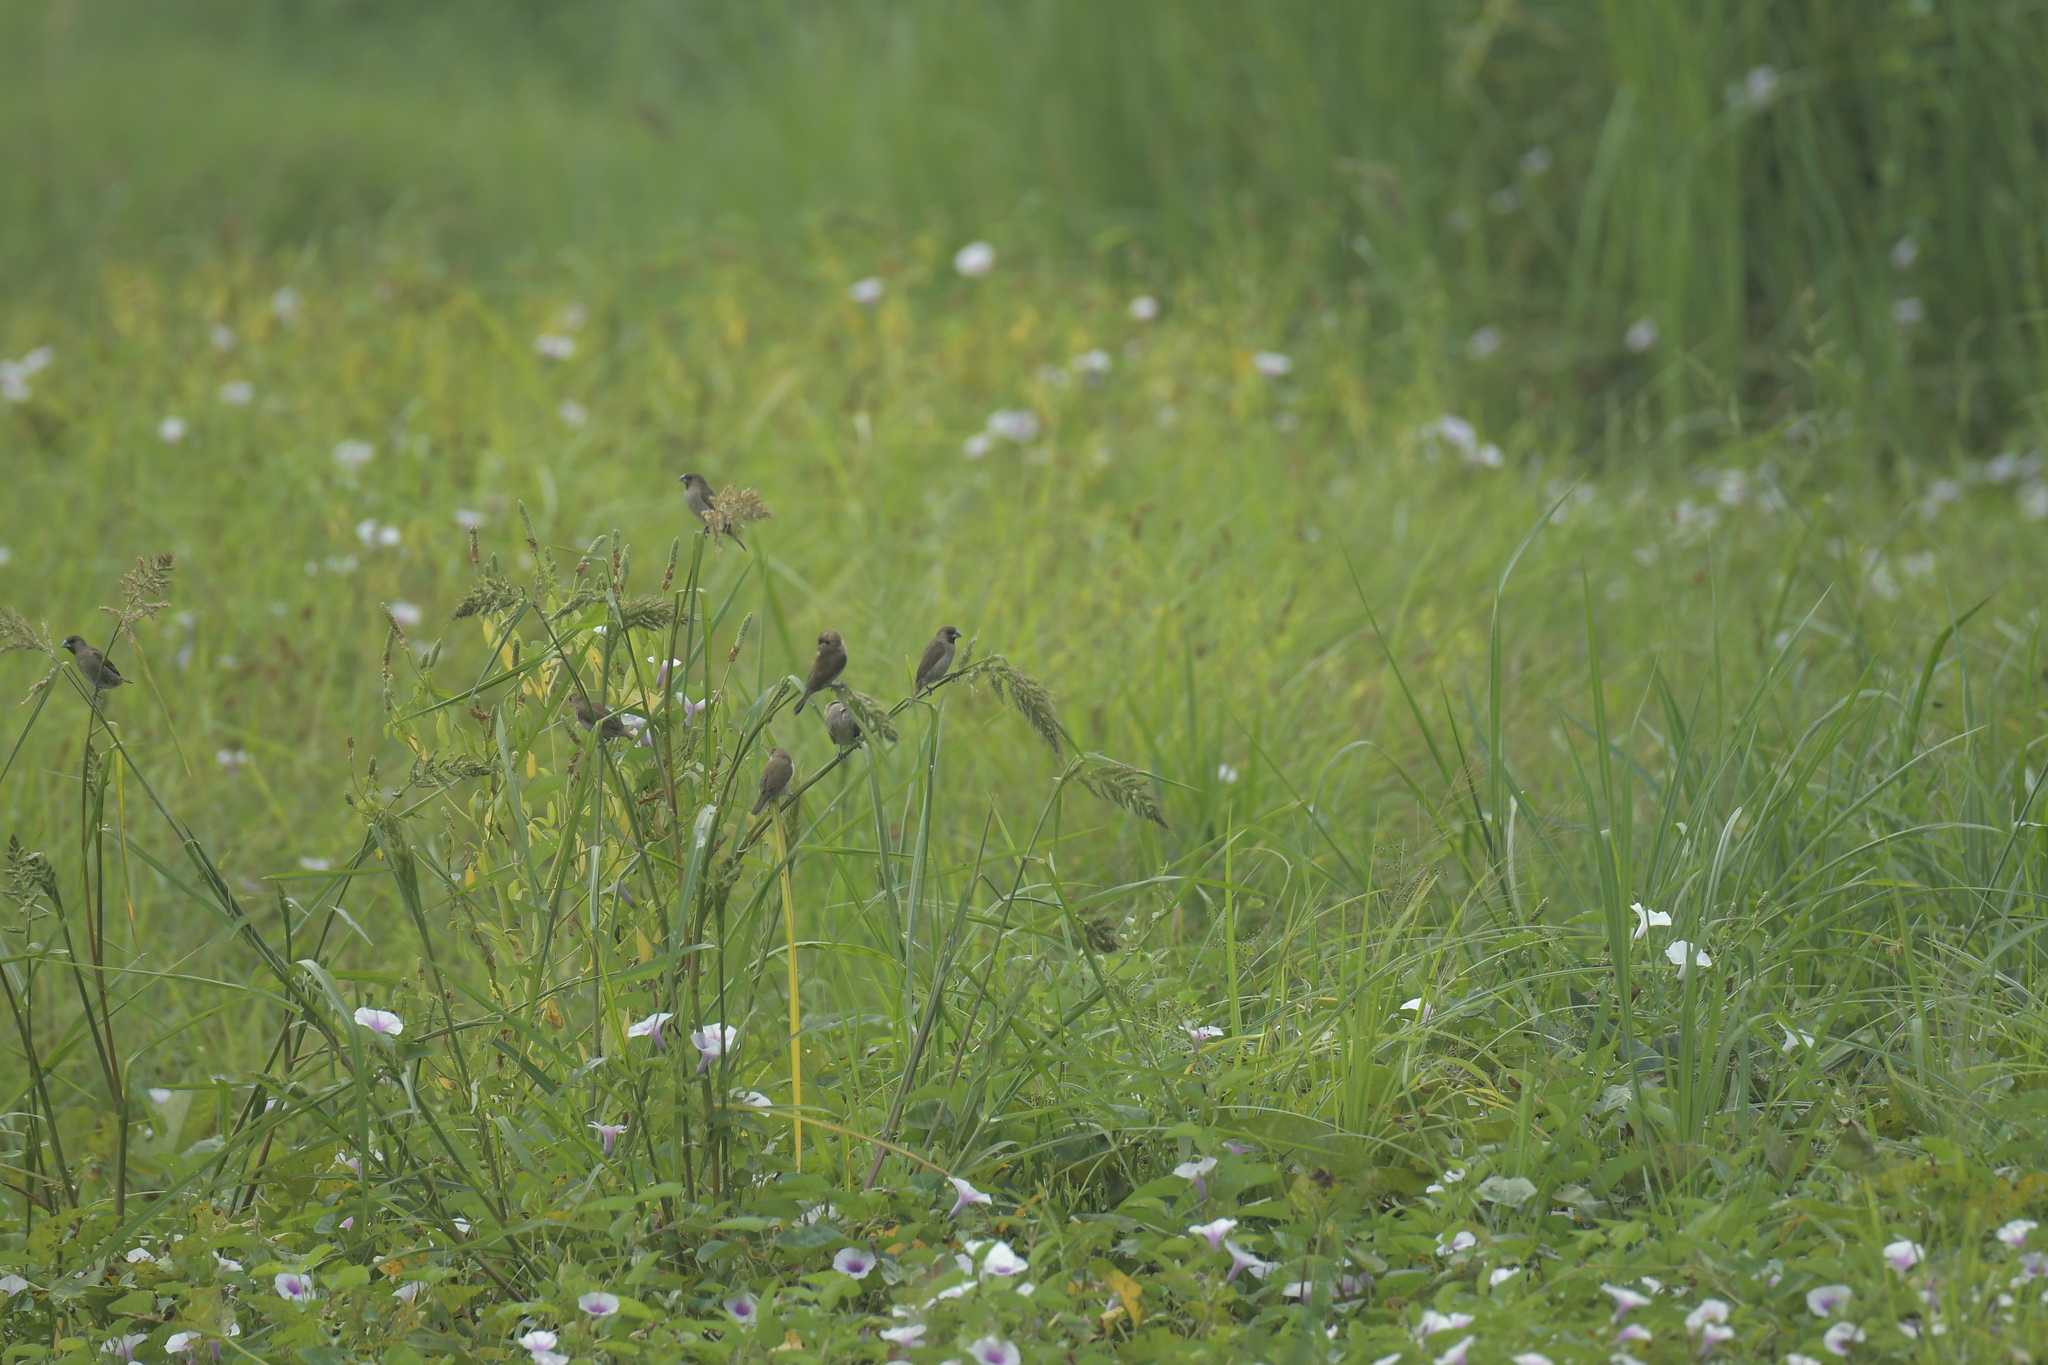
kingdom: Animalia
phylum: Chordata
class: Aves
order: Passeriformes
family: Estrildidae
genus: Lonchura
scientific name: Lonchura punctulata
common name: Scaly-breasted munia
